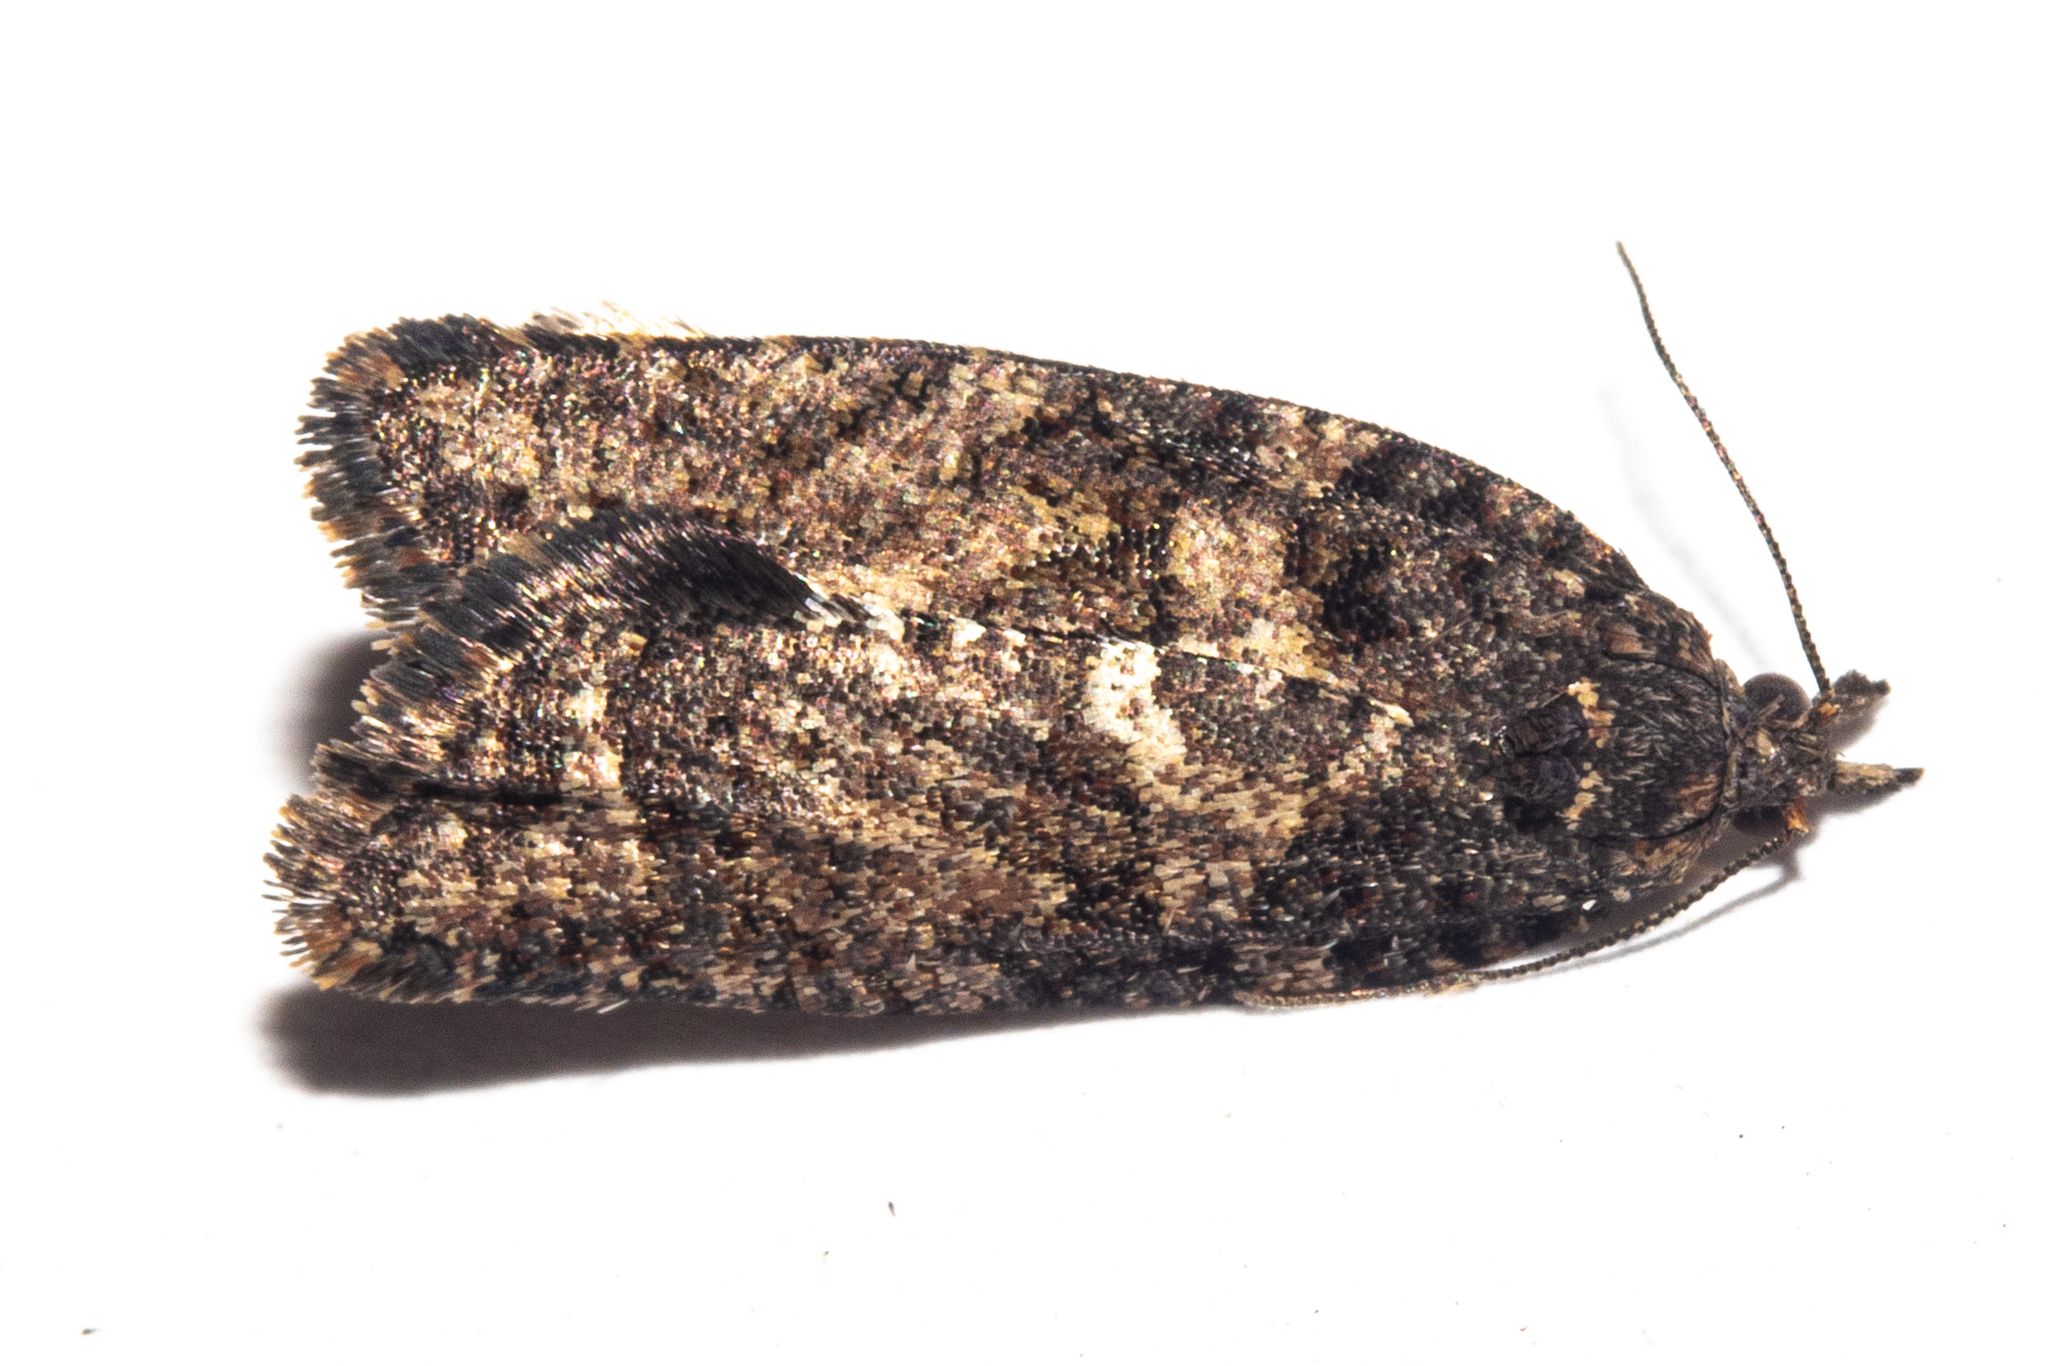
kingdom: Animalia
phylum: Arthropoda
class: Insecta
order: Lepidoptera
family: Tortricidae
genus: Capua
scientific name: Capua intractana
